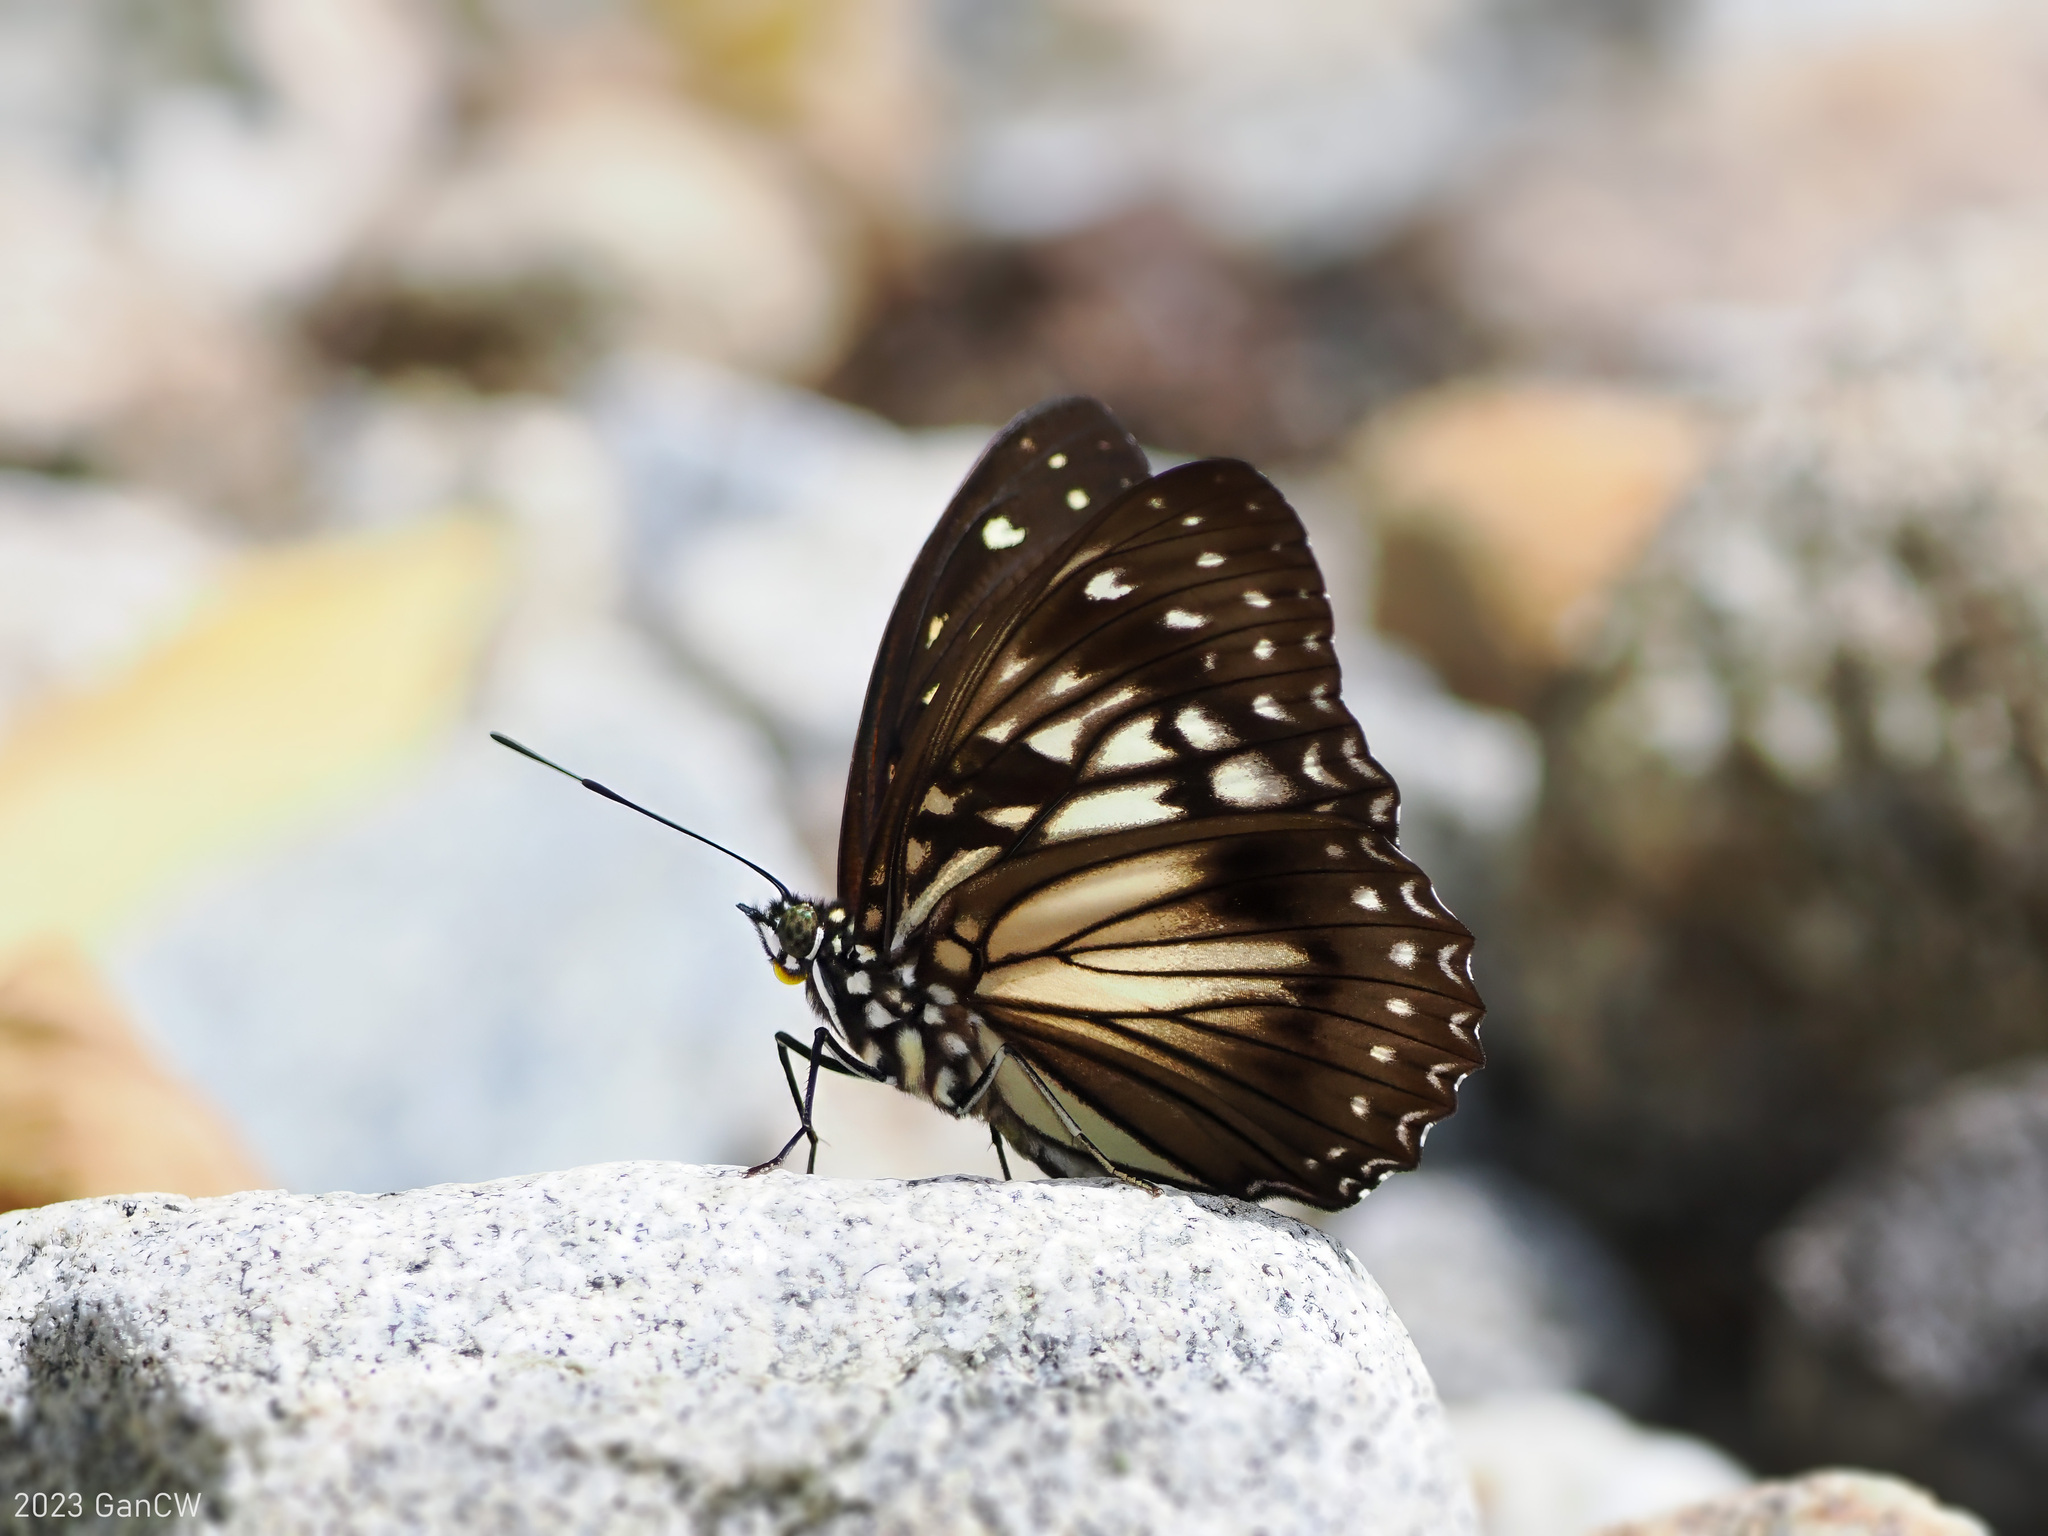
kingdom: Animalia
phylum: Arthropoda
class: Insecta
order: Lepidoptera
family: Nymphalidae
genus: Hestinalis
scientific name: Hestinalis divona
